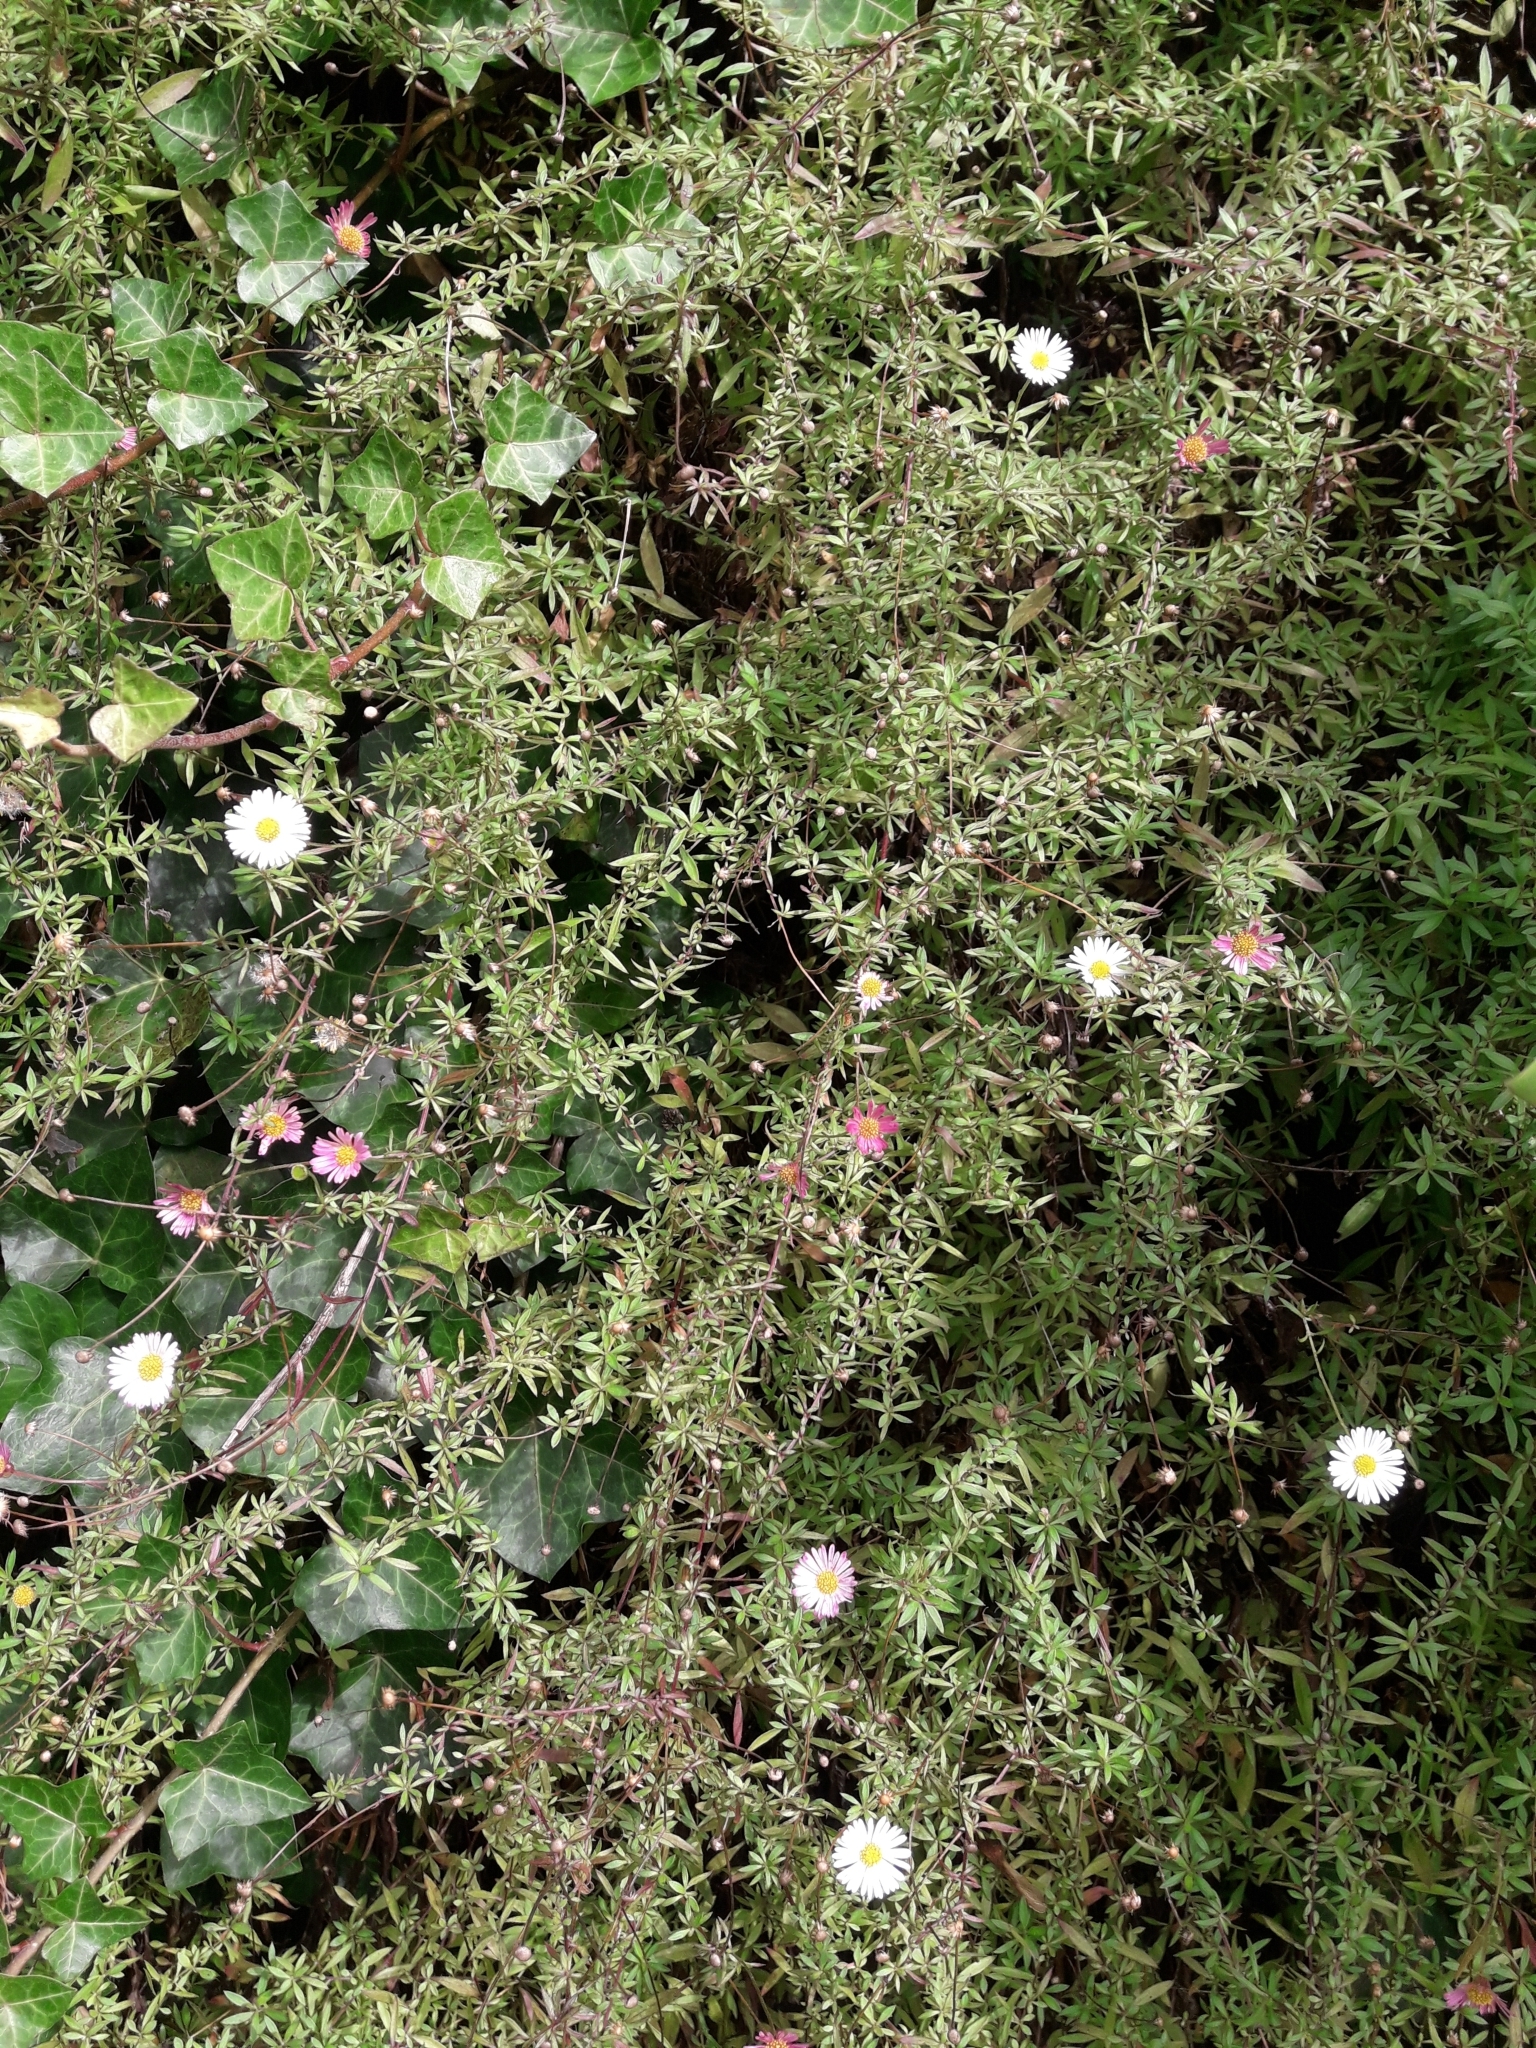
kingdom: Plantae
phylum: Tracheophyta
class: Magnoliopsida
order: Asterales
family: Asteraceae
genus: Erigeron
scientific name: Erigeron karvinskianus
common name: Mexican fleabane
